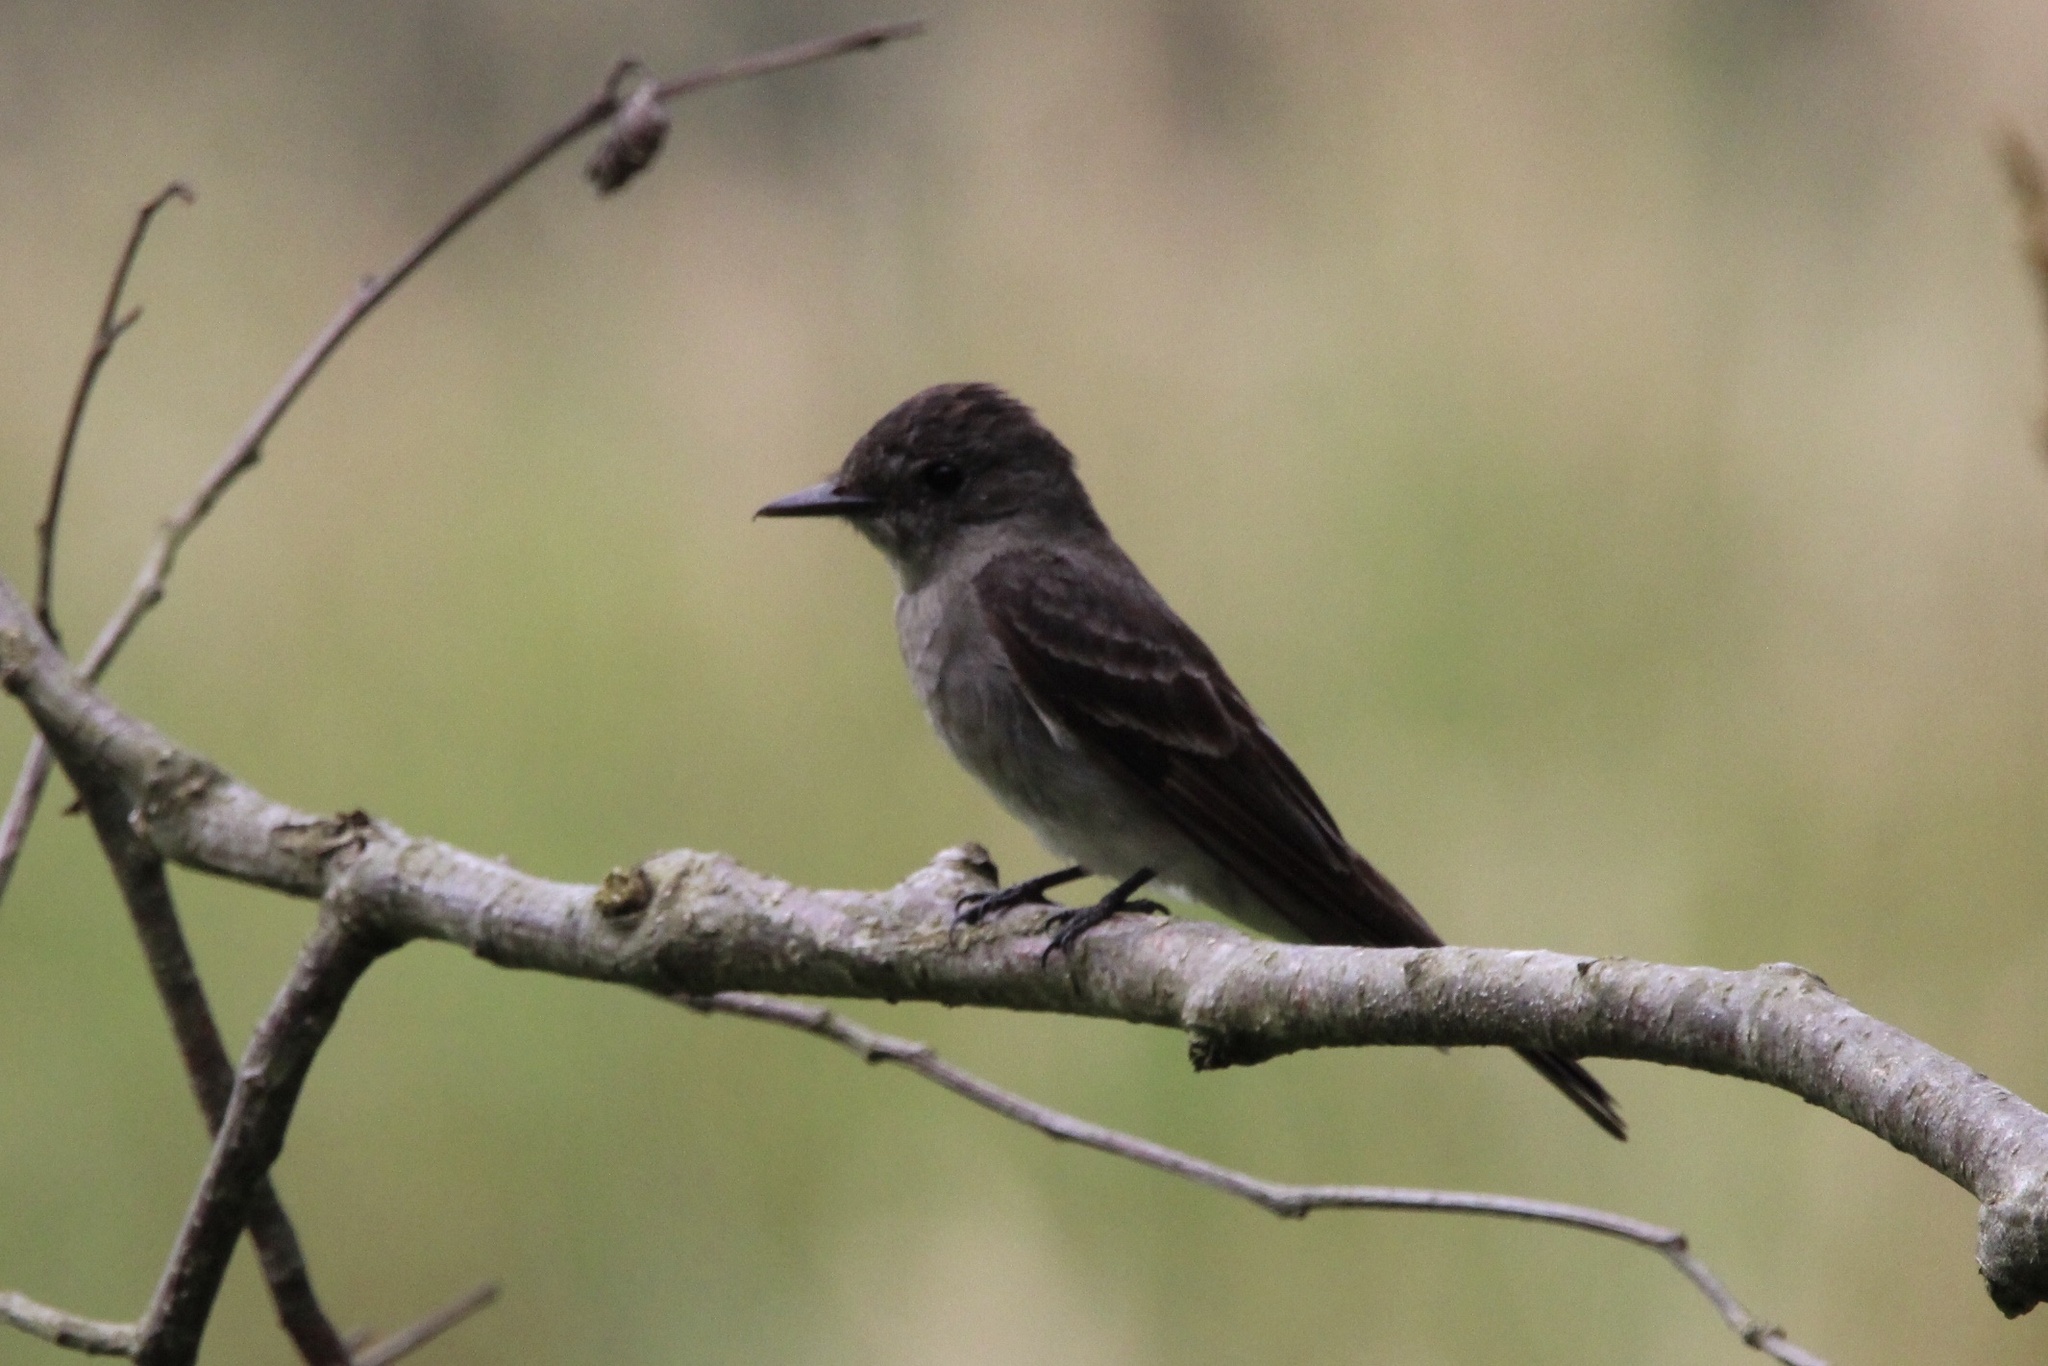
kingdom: Animalia
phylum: Chordata
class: Aves
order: Passeriformes
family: Tyrannidae
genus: Contopus
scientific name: Contopus sordidulus
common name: Western wood-pewee
